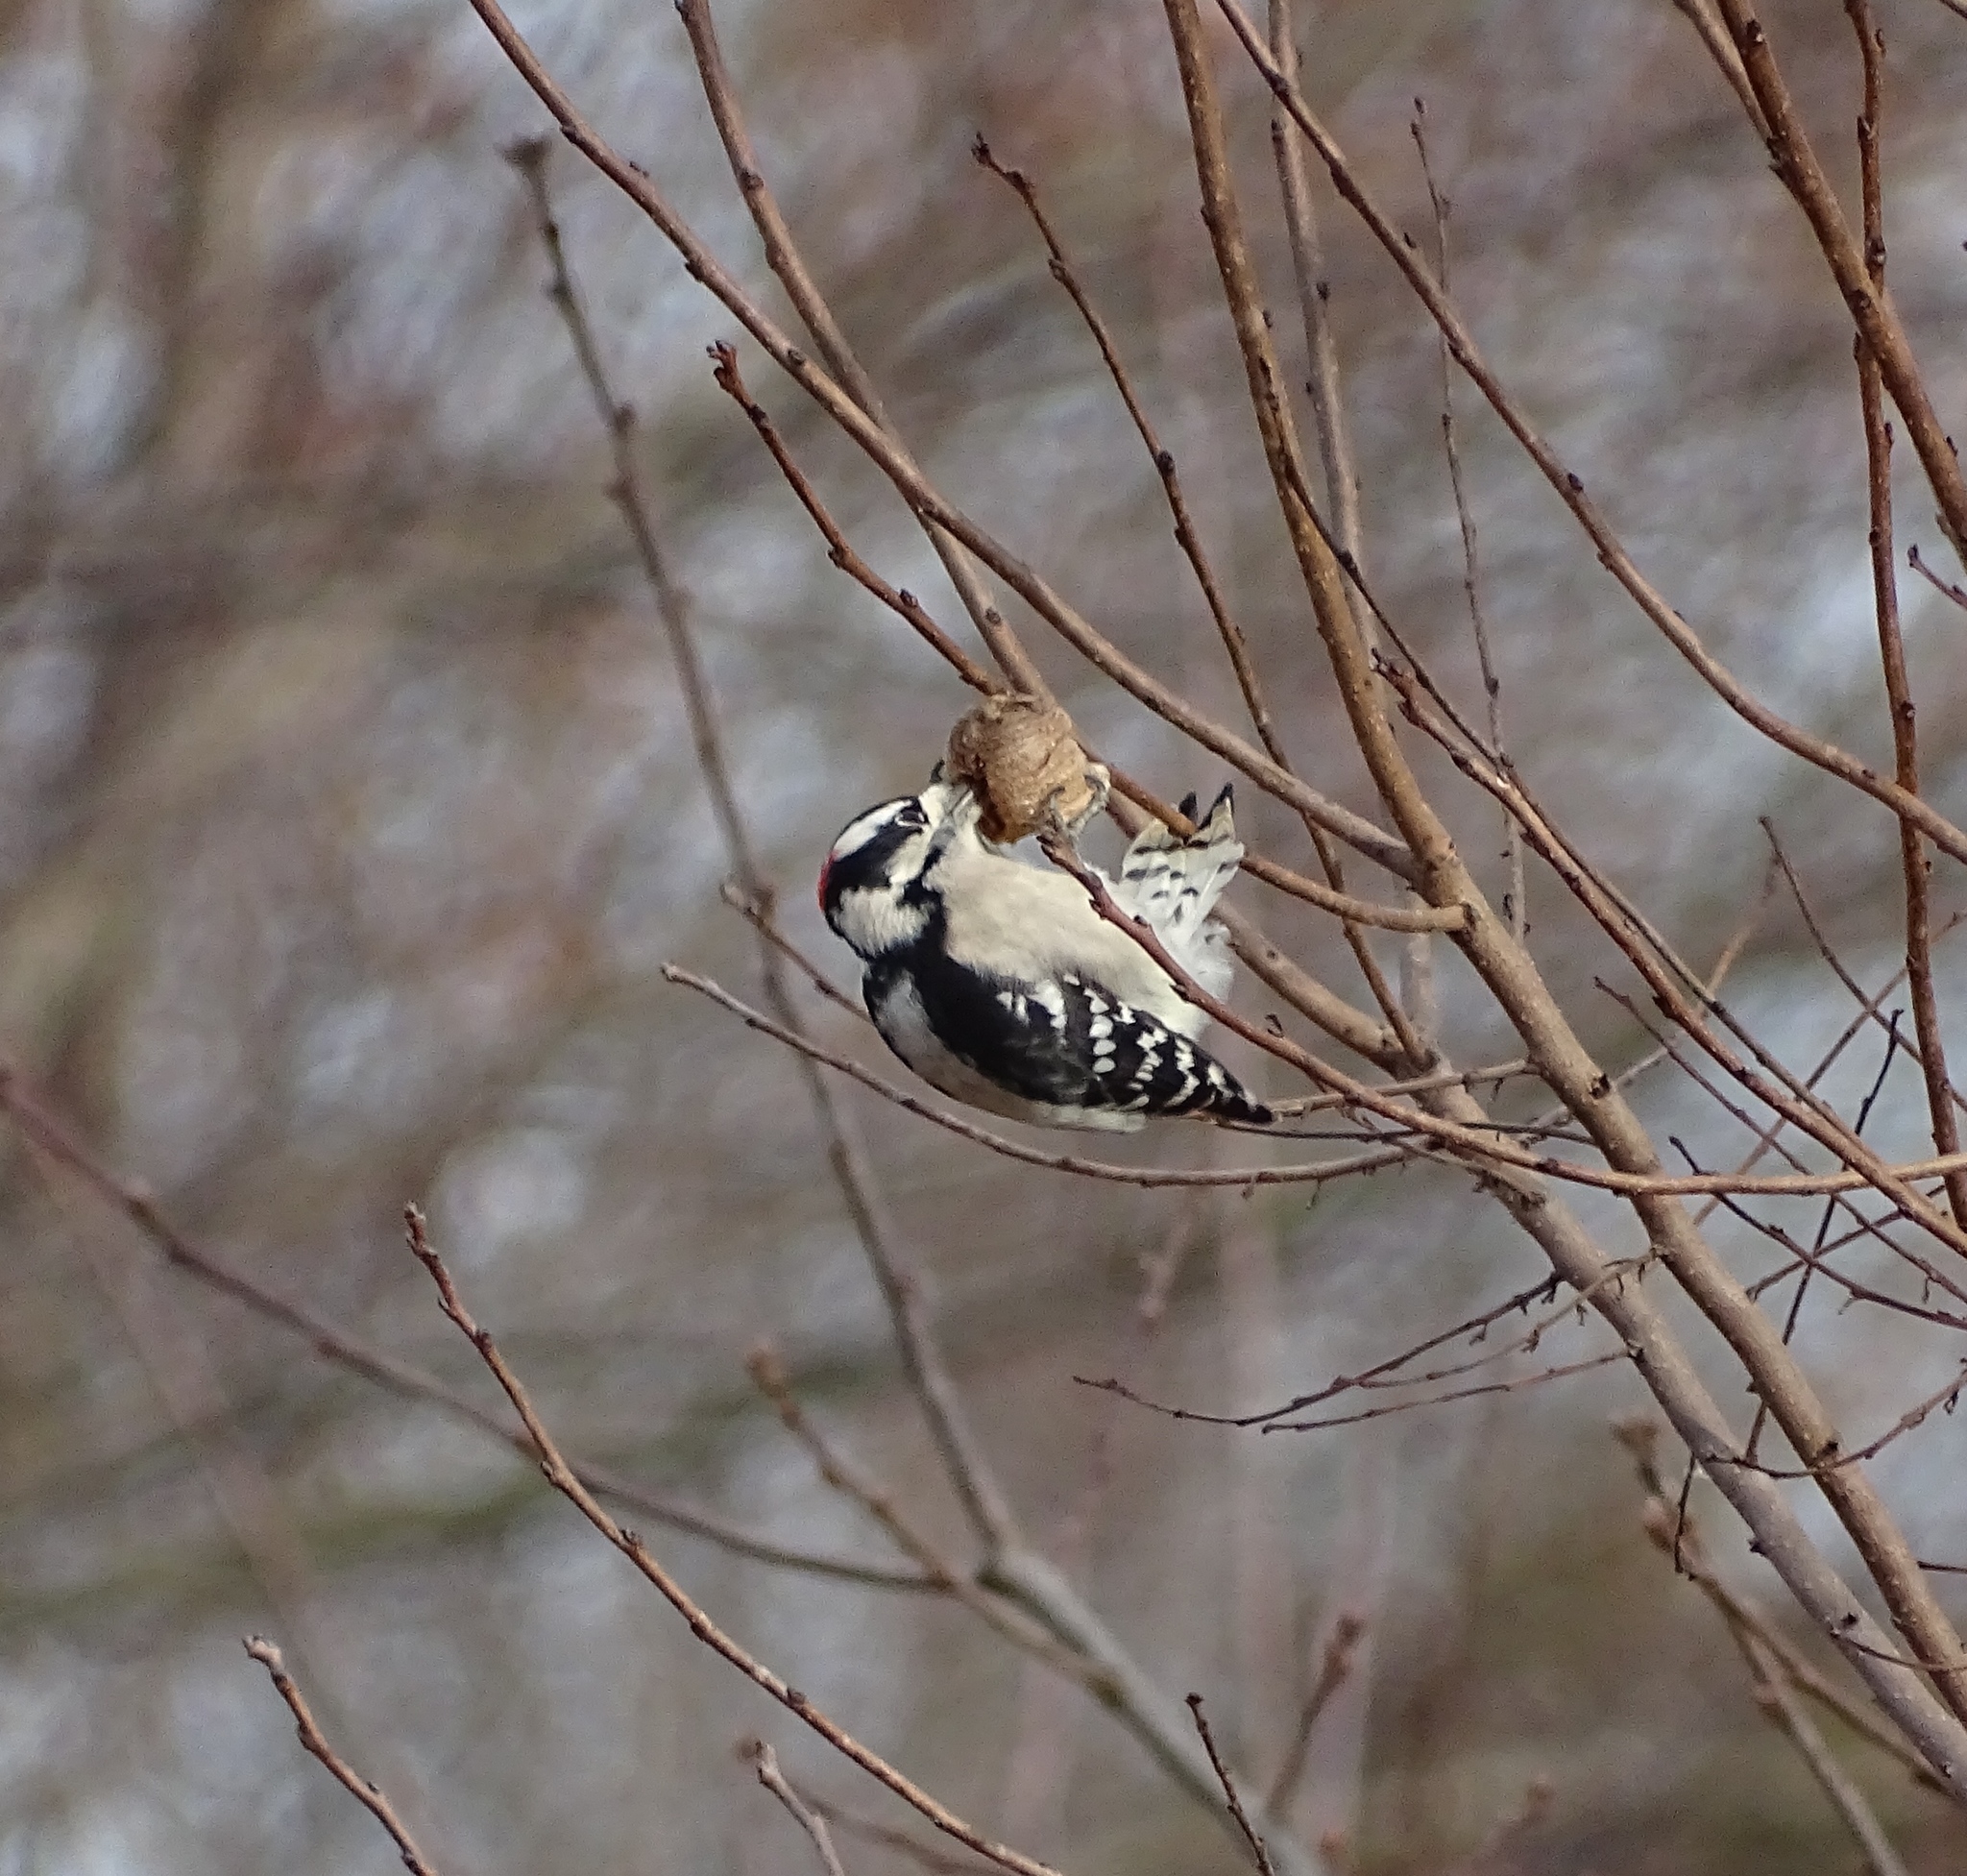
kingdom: Animalia
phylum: Chordata
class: Aves
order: Piciformes
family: Picidae
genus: Dryobates
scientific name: Dryobates pubescens
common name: Downy woodpecker
